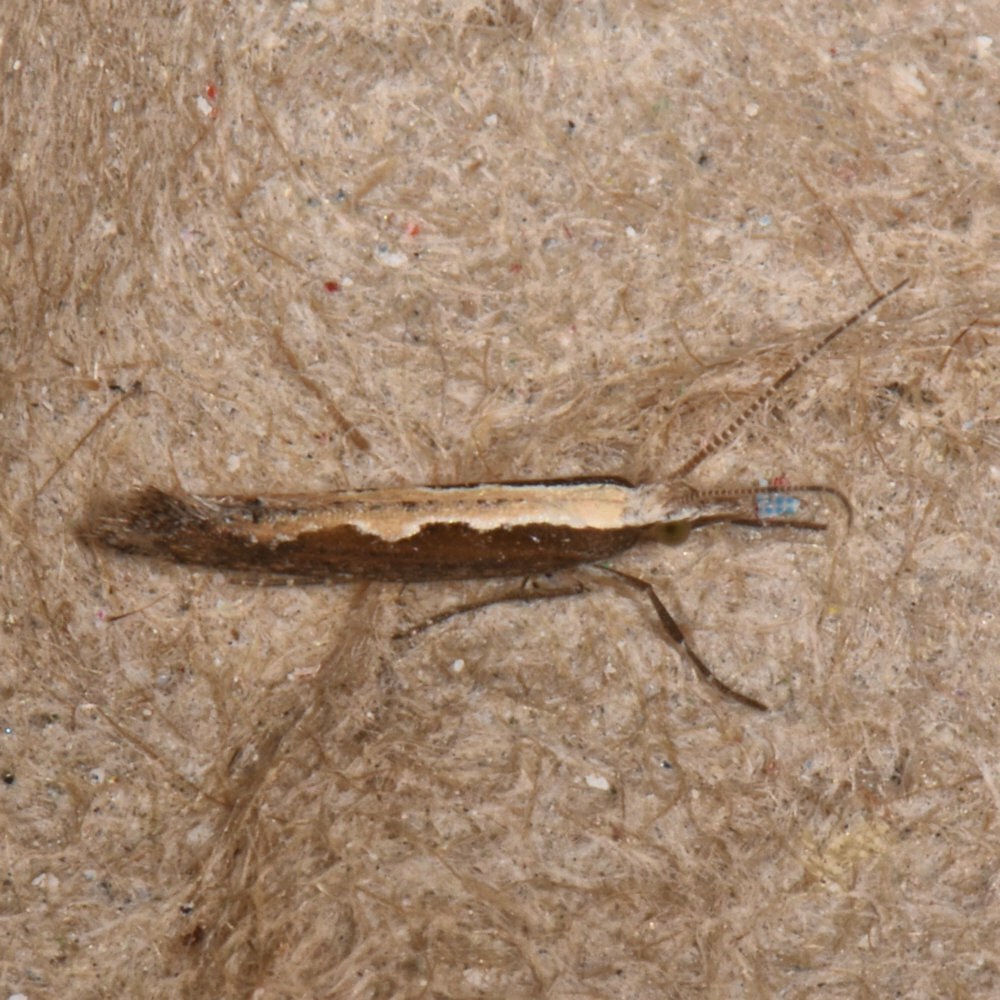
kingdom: Animalia
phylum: Arthropoda
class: Insecta
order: Lepidoptera
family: Plutellidae
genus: Plutella
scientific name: Plutella xylostella
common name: Diamond-back moth
